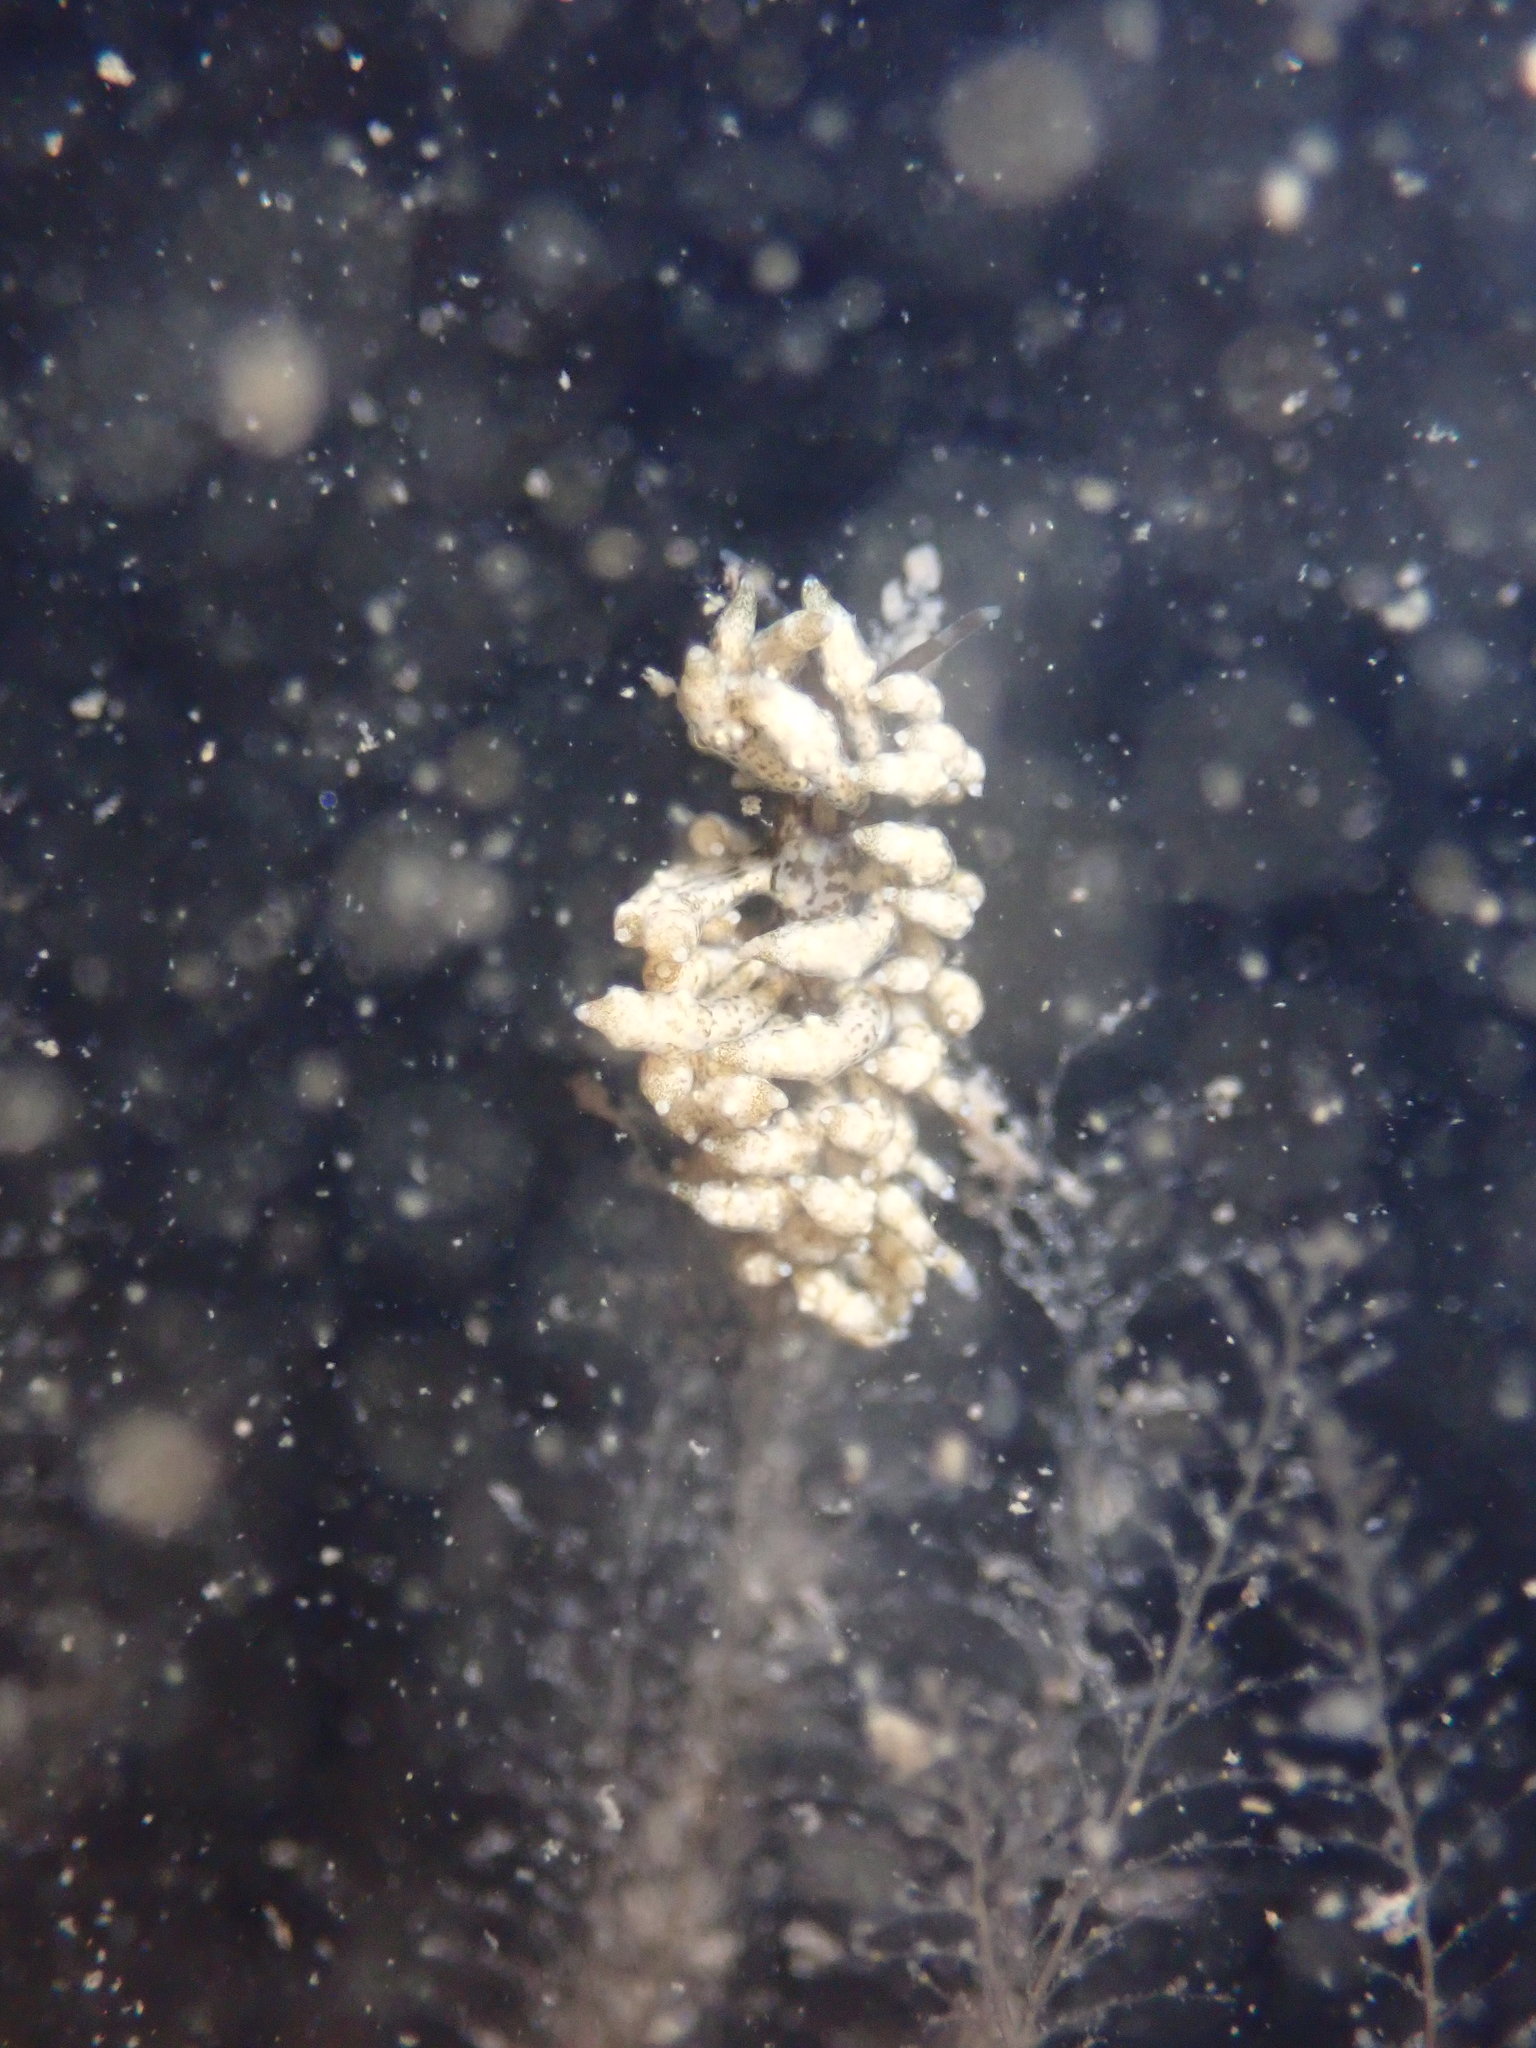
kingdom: Animalia
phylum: Mollusca
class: Gastropoda
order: Nudibranchia
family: Eubranchidae
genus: Eubranchus
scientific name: Eubranchus rustyus
